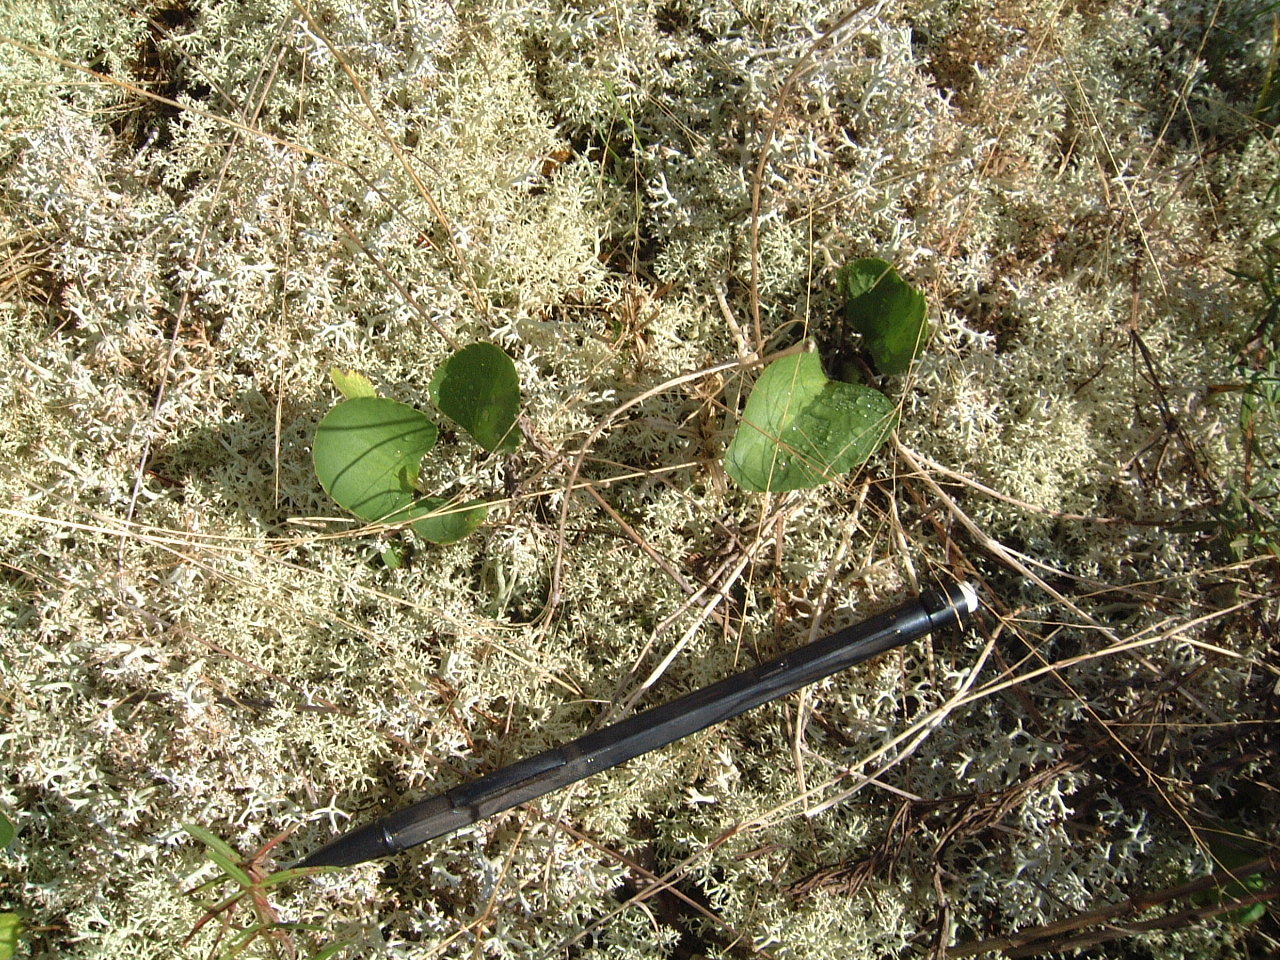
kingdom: Plantae
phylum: Tracheophyta
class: Magnoliopsida
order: Ranunculales
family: Ranunculaceae
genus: Ranunculus
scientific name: Ranunculus rhomboideus
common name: Prairie buttercup
